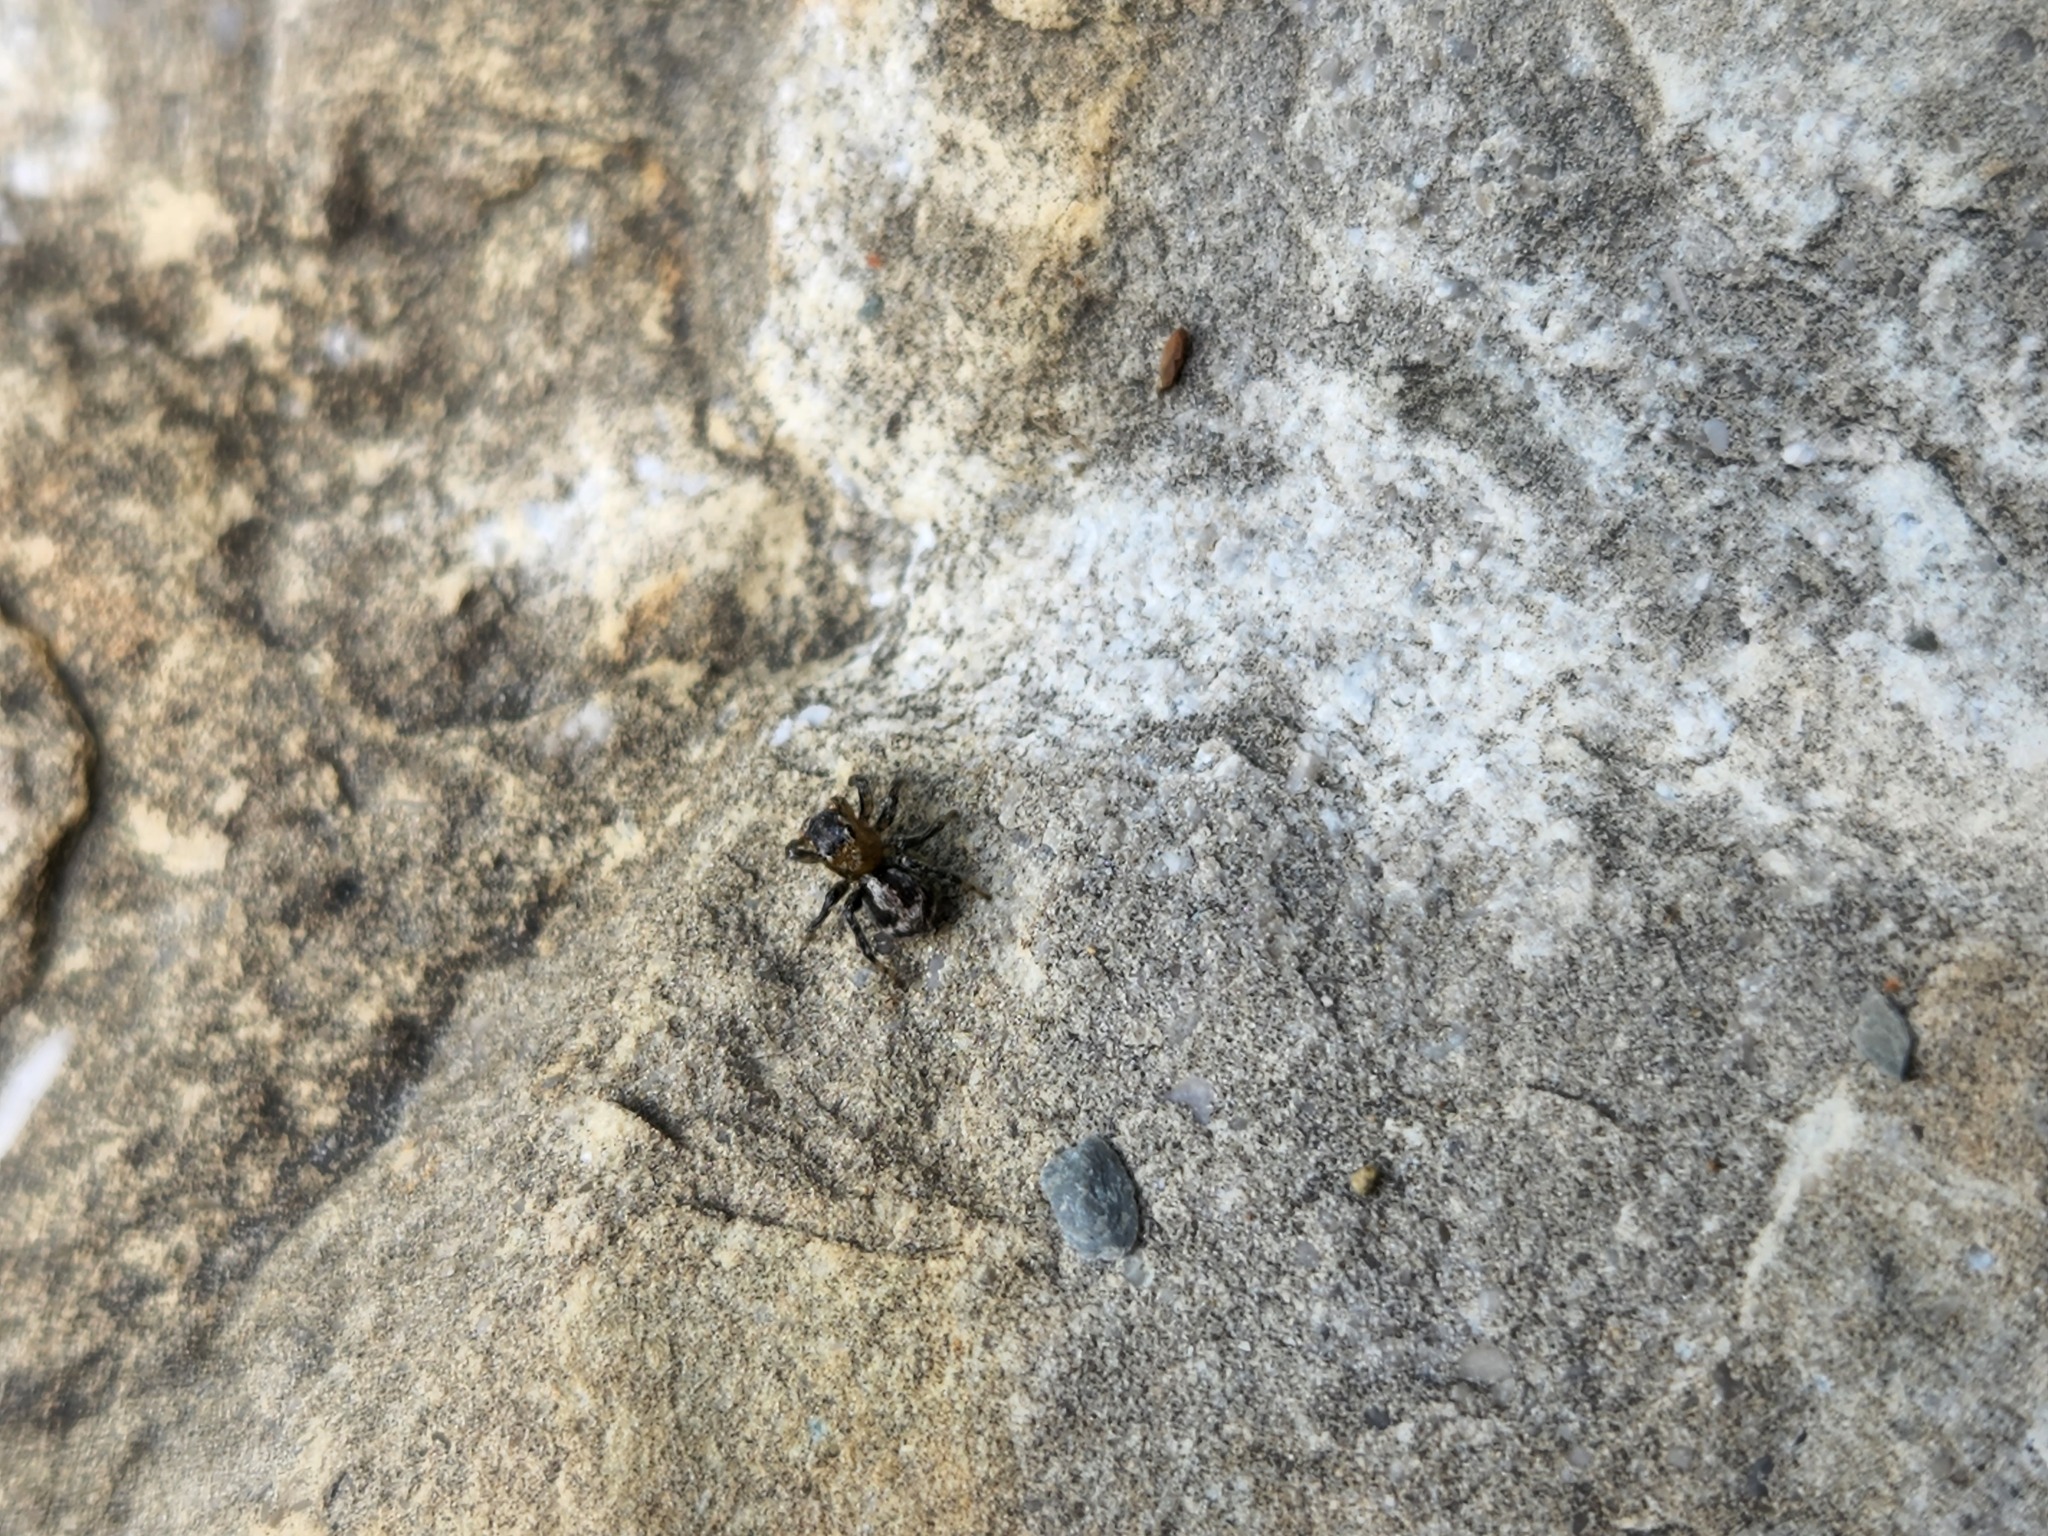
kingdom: Animalia
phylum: Arthropoda
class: Arachnida
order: Araneae
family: Salticidae
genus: Naphrys
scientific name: Naphrys pulex
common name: Flea jumping spider
